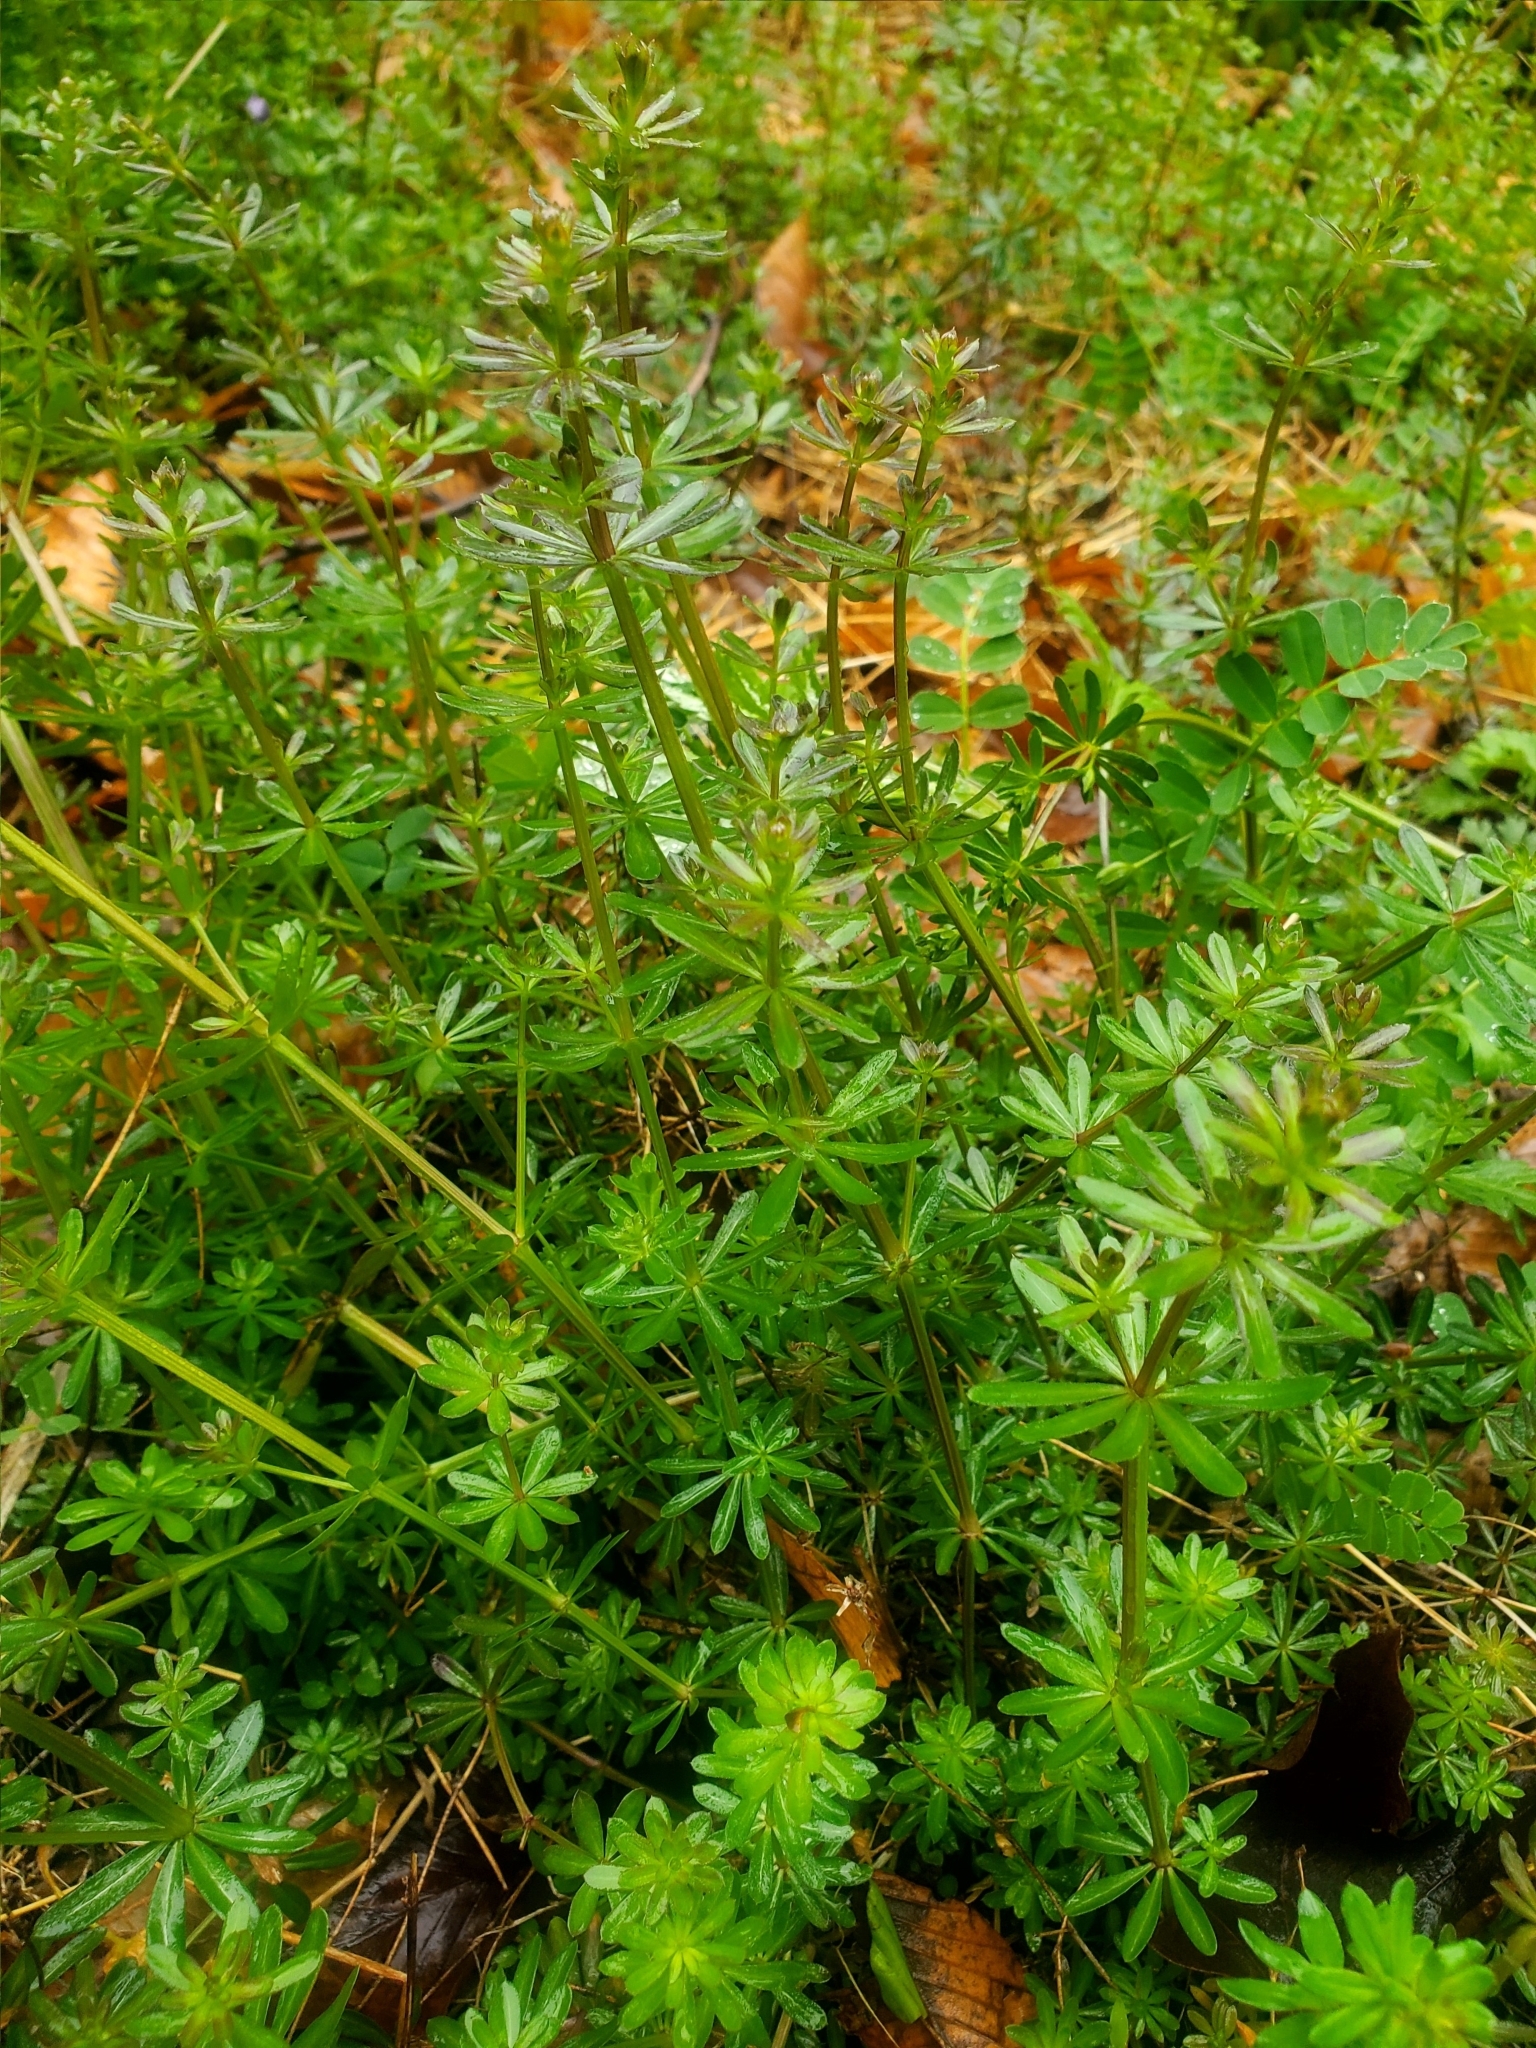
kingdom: Plantae
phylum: Tracheophyta
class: Magnoliopsida
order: Gentianales
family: Rubiaceae
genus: Galium
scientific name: Galium mollugo
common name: Hedge bedstraw
